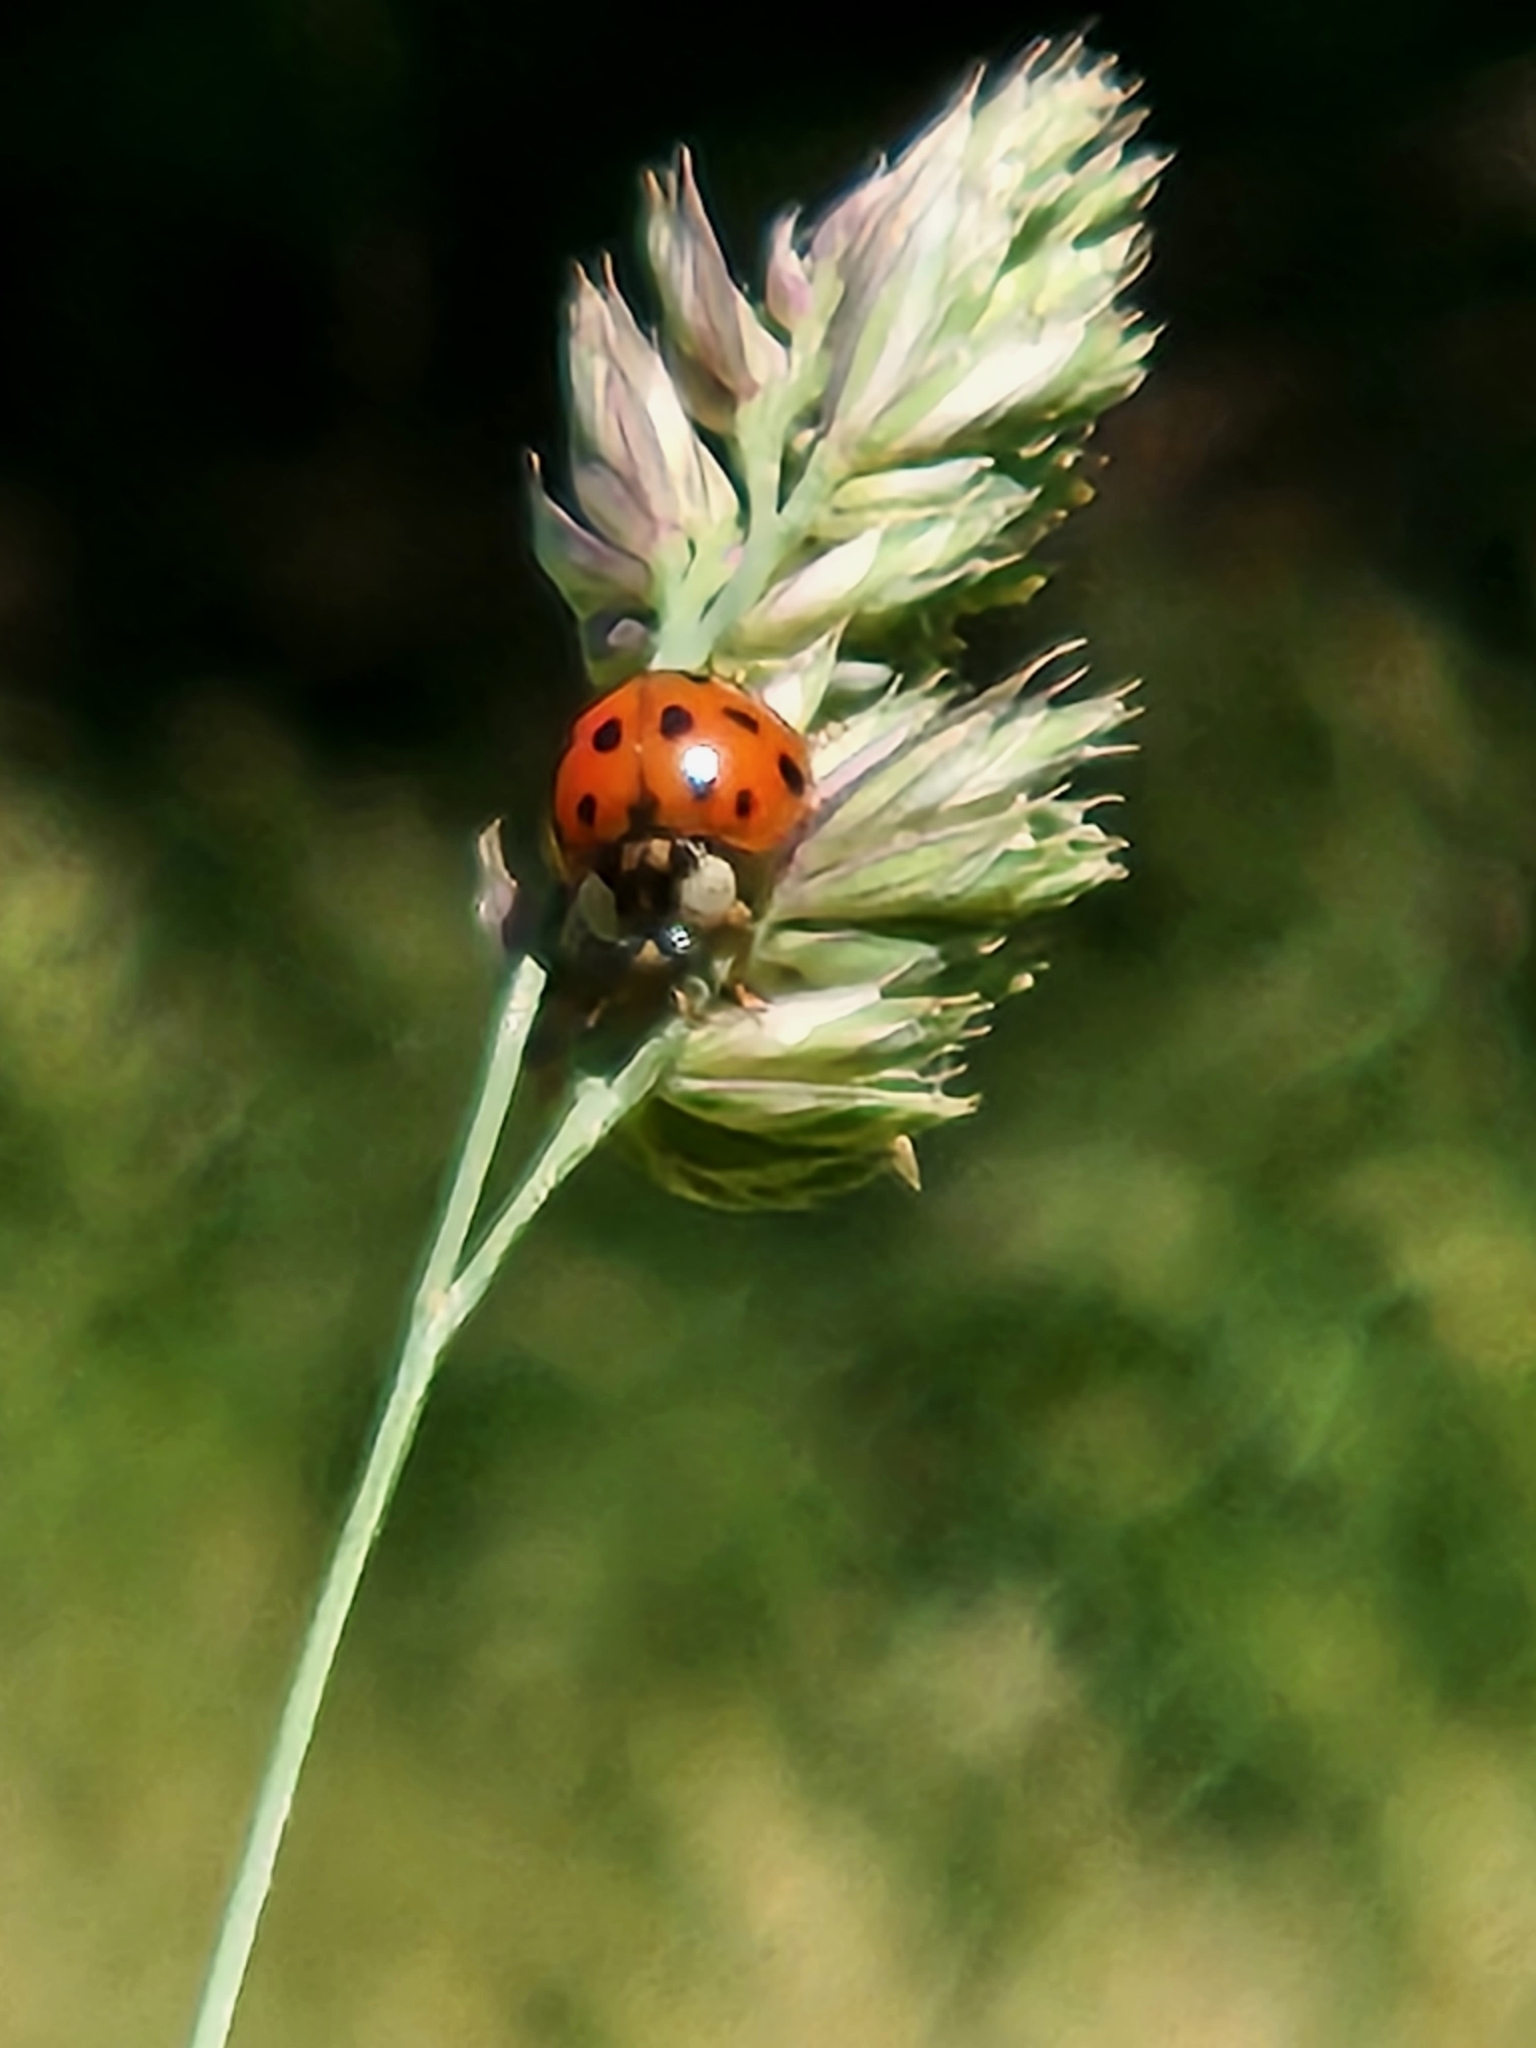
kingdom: Animalia
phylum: Arthropoda
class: Insecta
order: Coleoptera
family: Coccinellidae
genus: Harmonia
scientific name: Harmonia axyridis
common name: Harlequin ladybird
